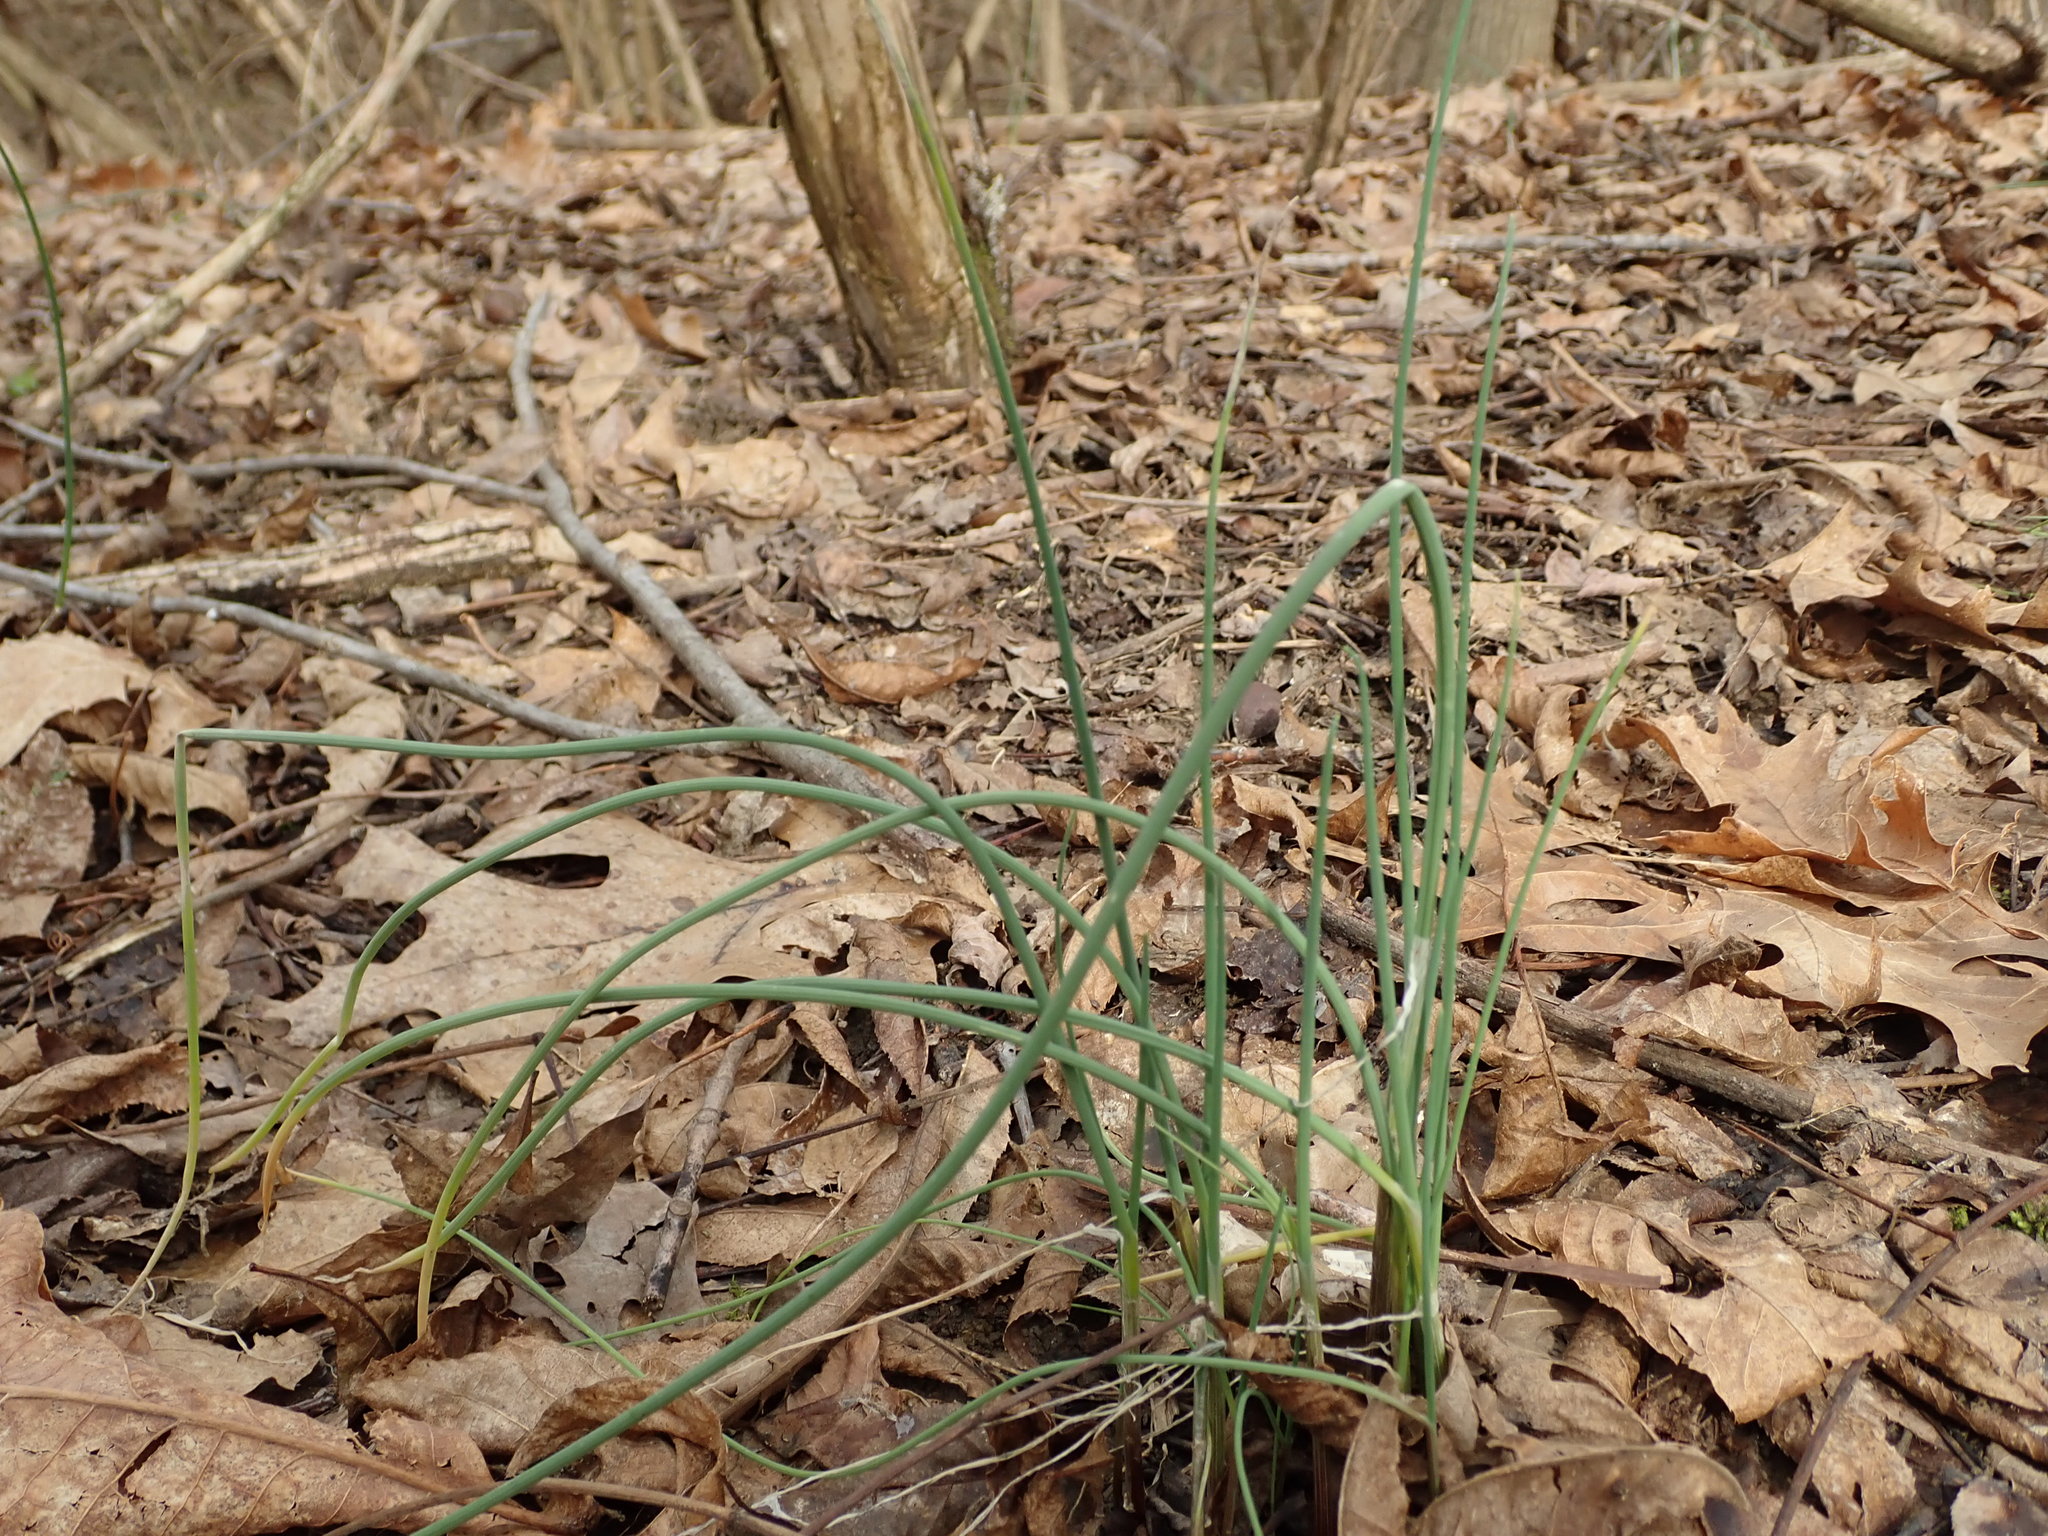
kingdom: Plantae
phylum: Tracheophyta
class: Liliopsida
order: Asparagales
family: Amaryllidaceae
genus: Allium
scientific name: Allium vineale
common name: Crow garlic
